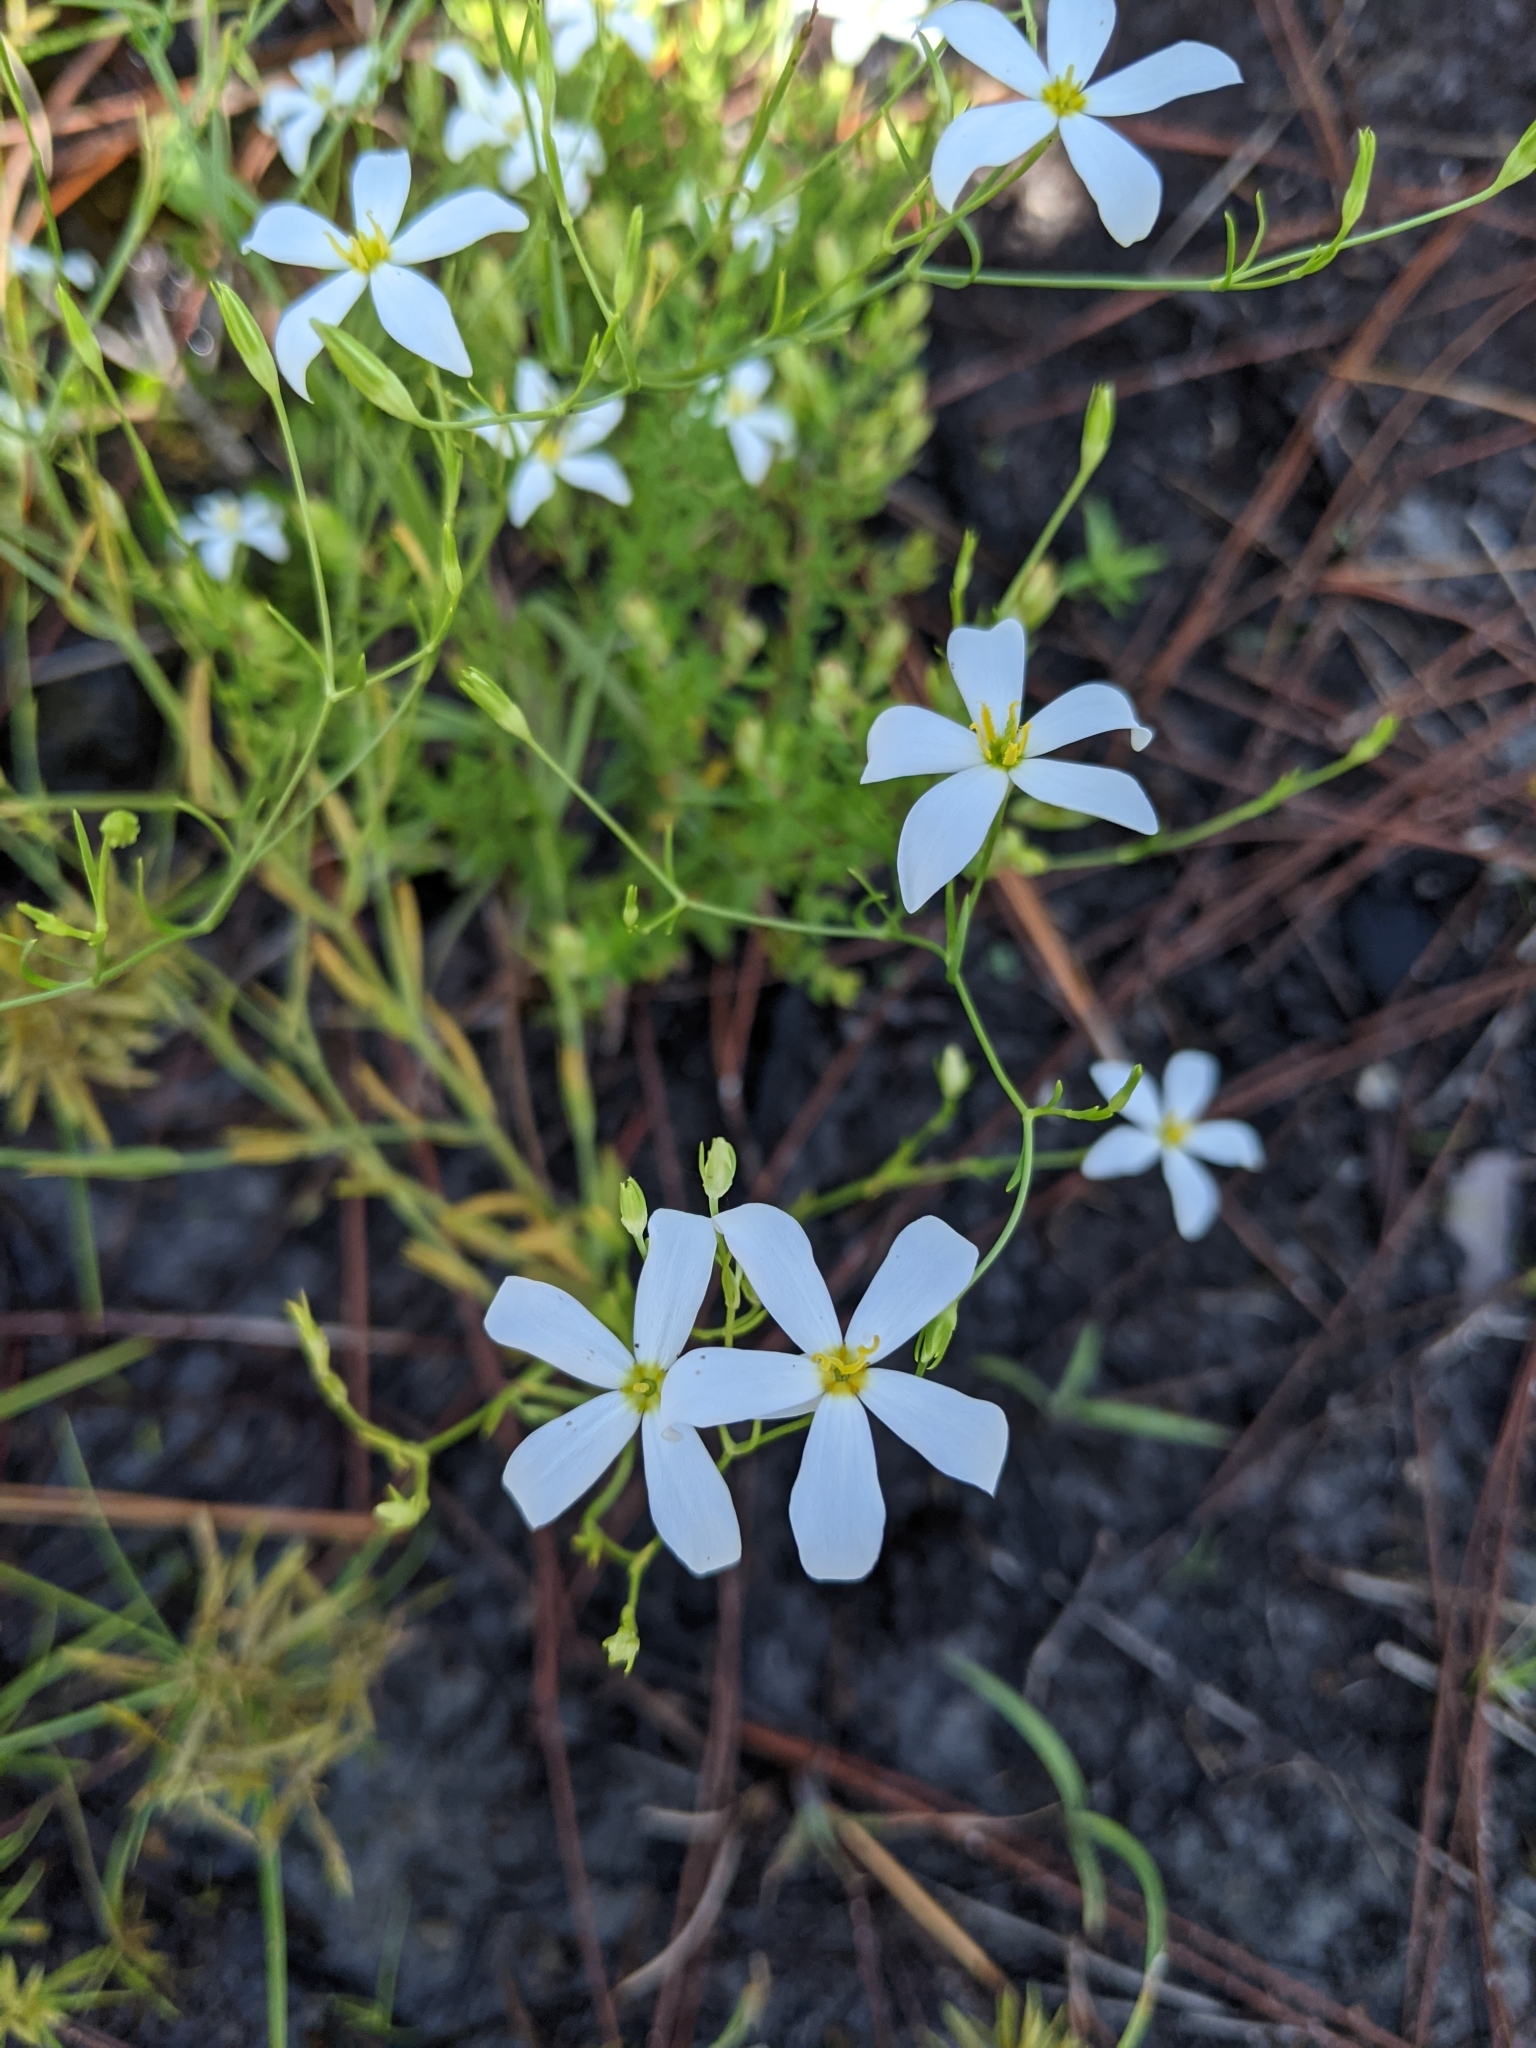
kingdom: Plantae
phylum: Tracheophyta
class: Magnoliopsida
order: Gentianales
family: Gentianaceae
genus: Sabatia
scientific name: Sabatia brevifolia
